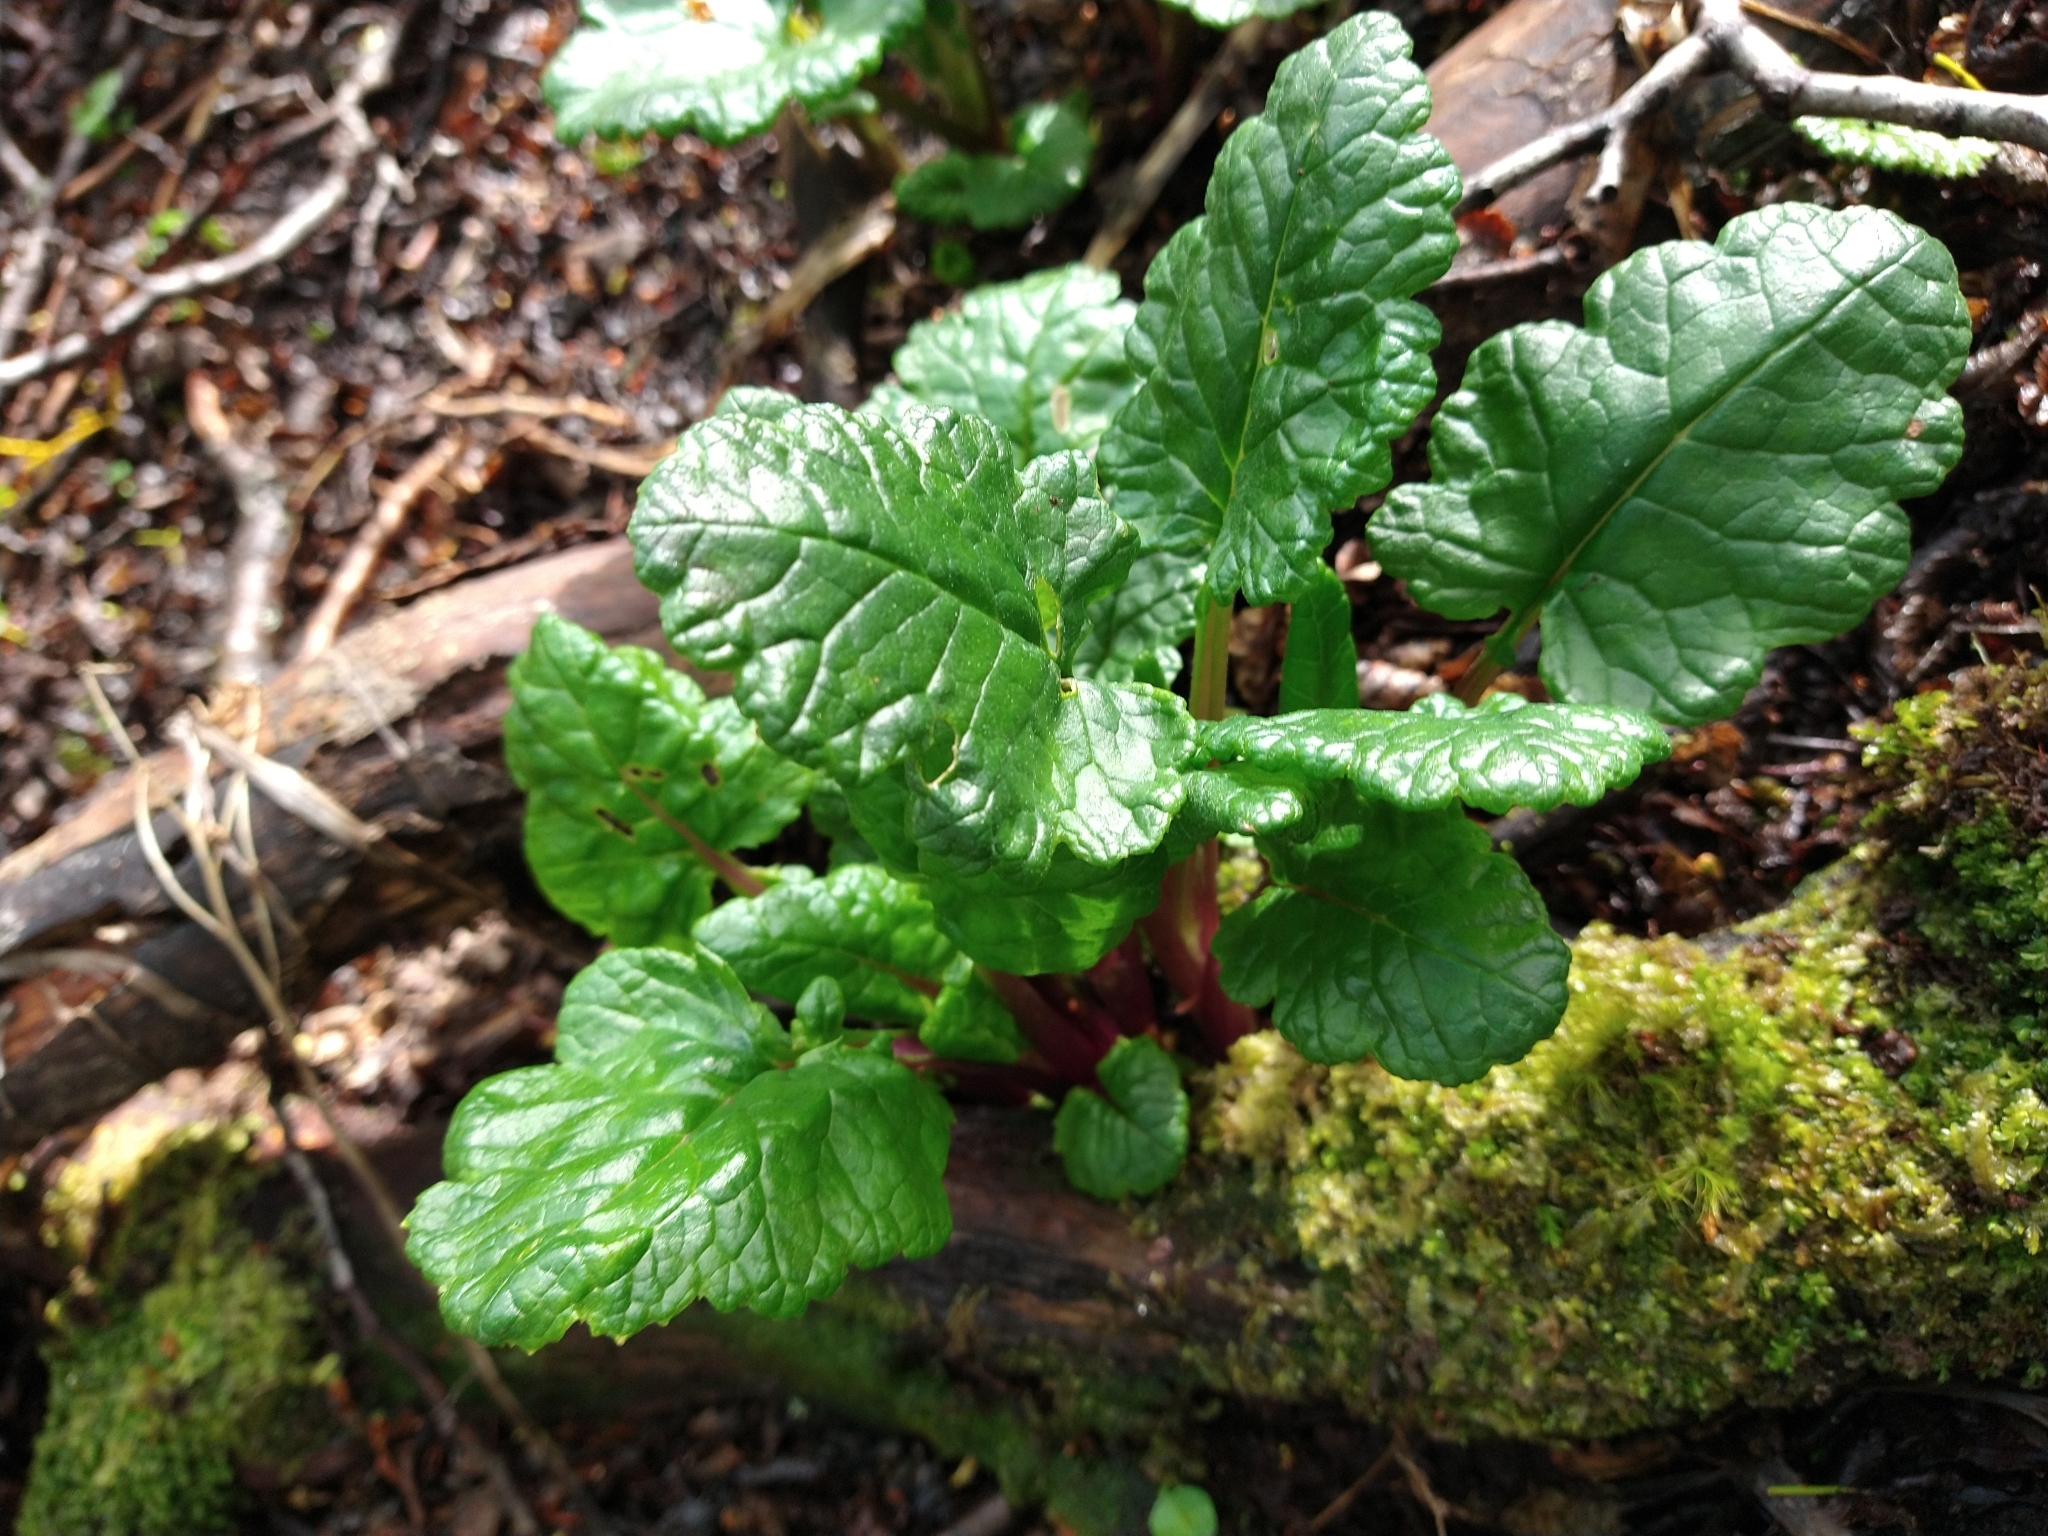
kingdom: Plantae
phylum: Tracheophyta
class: Magnoliopsida
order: Asterales
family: Asteraceae
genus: Iocenes
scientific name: Iocenes virens
